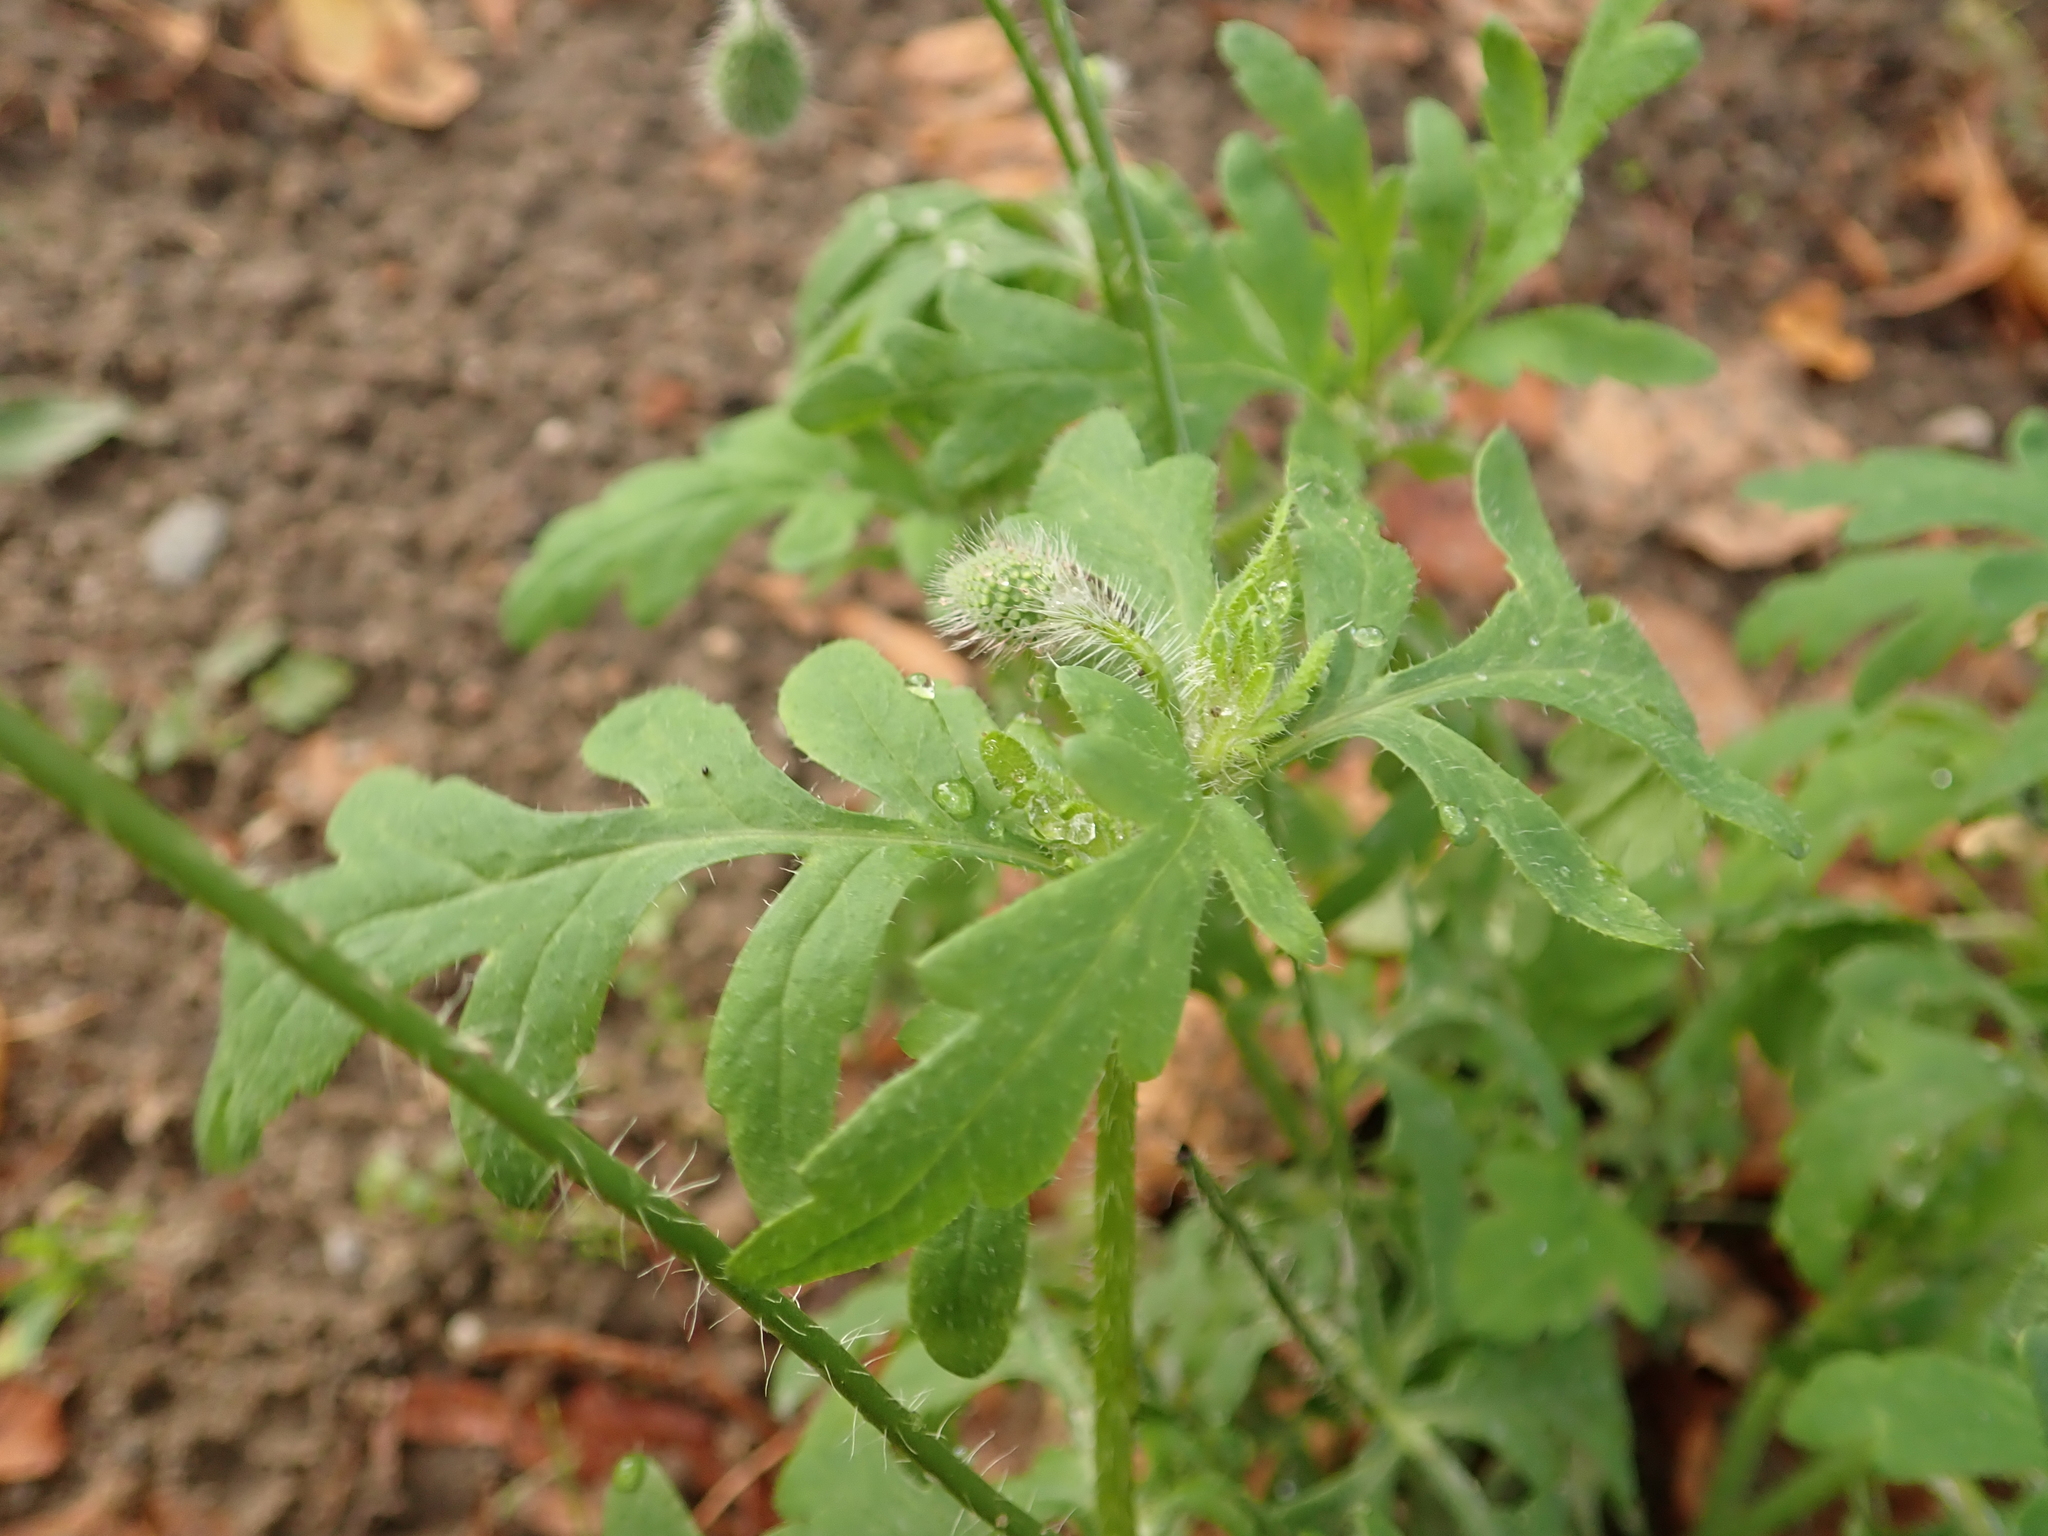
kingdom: Plantae
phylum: Tracheophyta
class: Magnoliopsida
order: Ranunculales
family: Papaveraceae
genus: Papaver
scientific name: Papaver rhoeas
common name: Corn poppy
